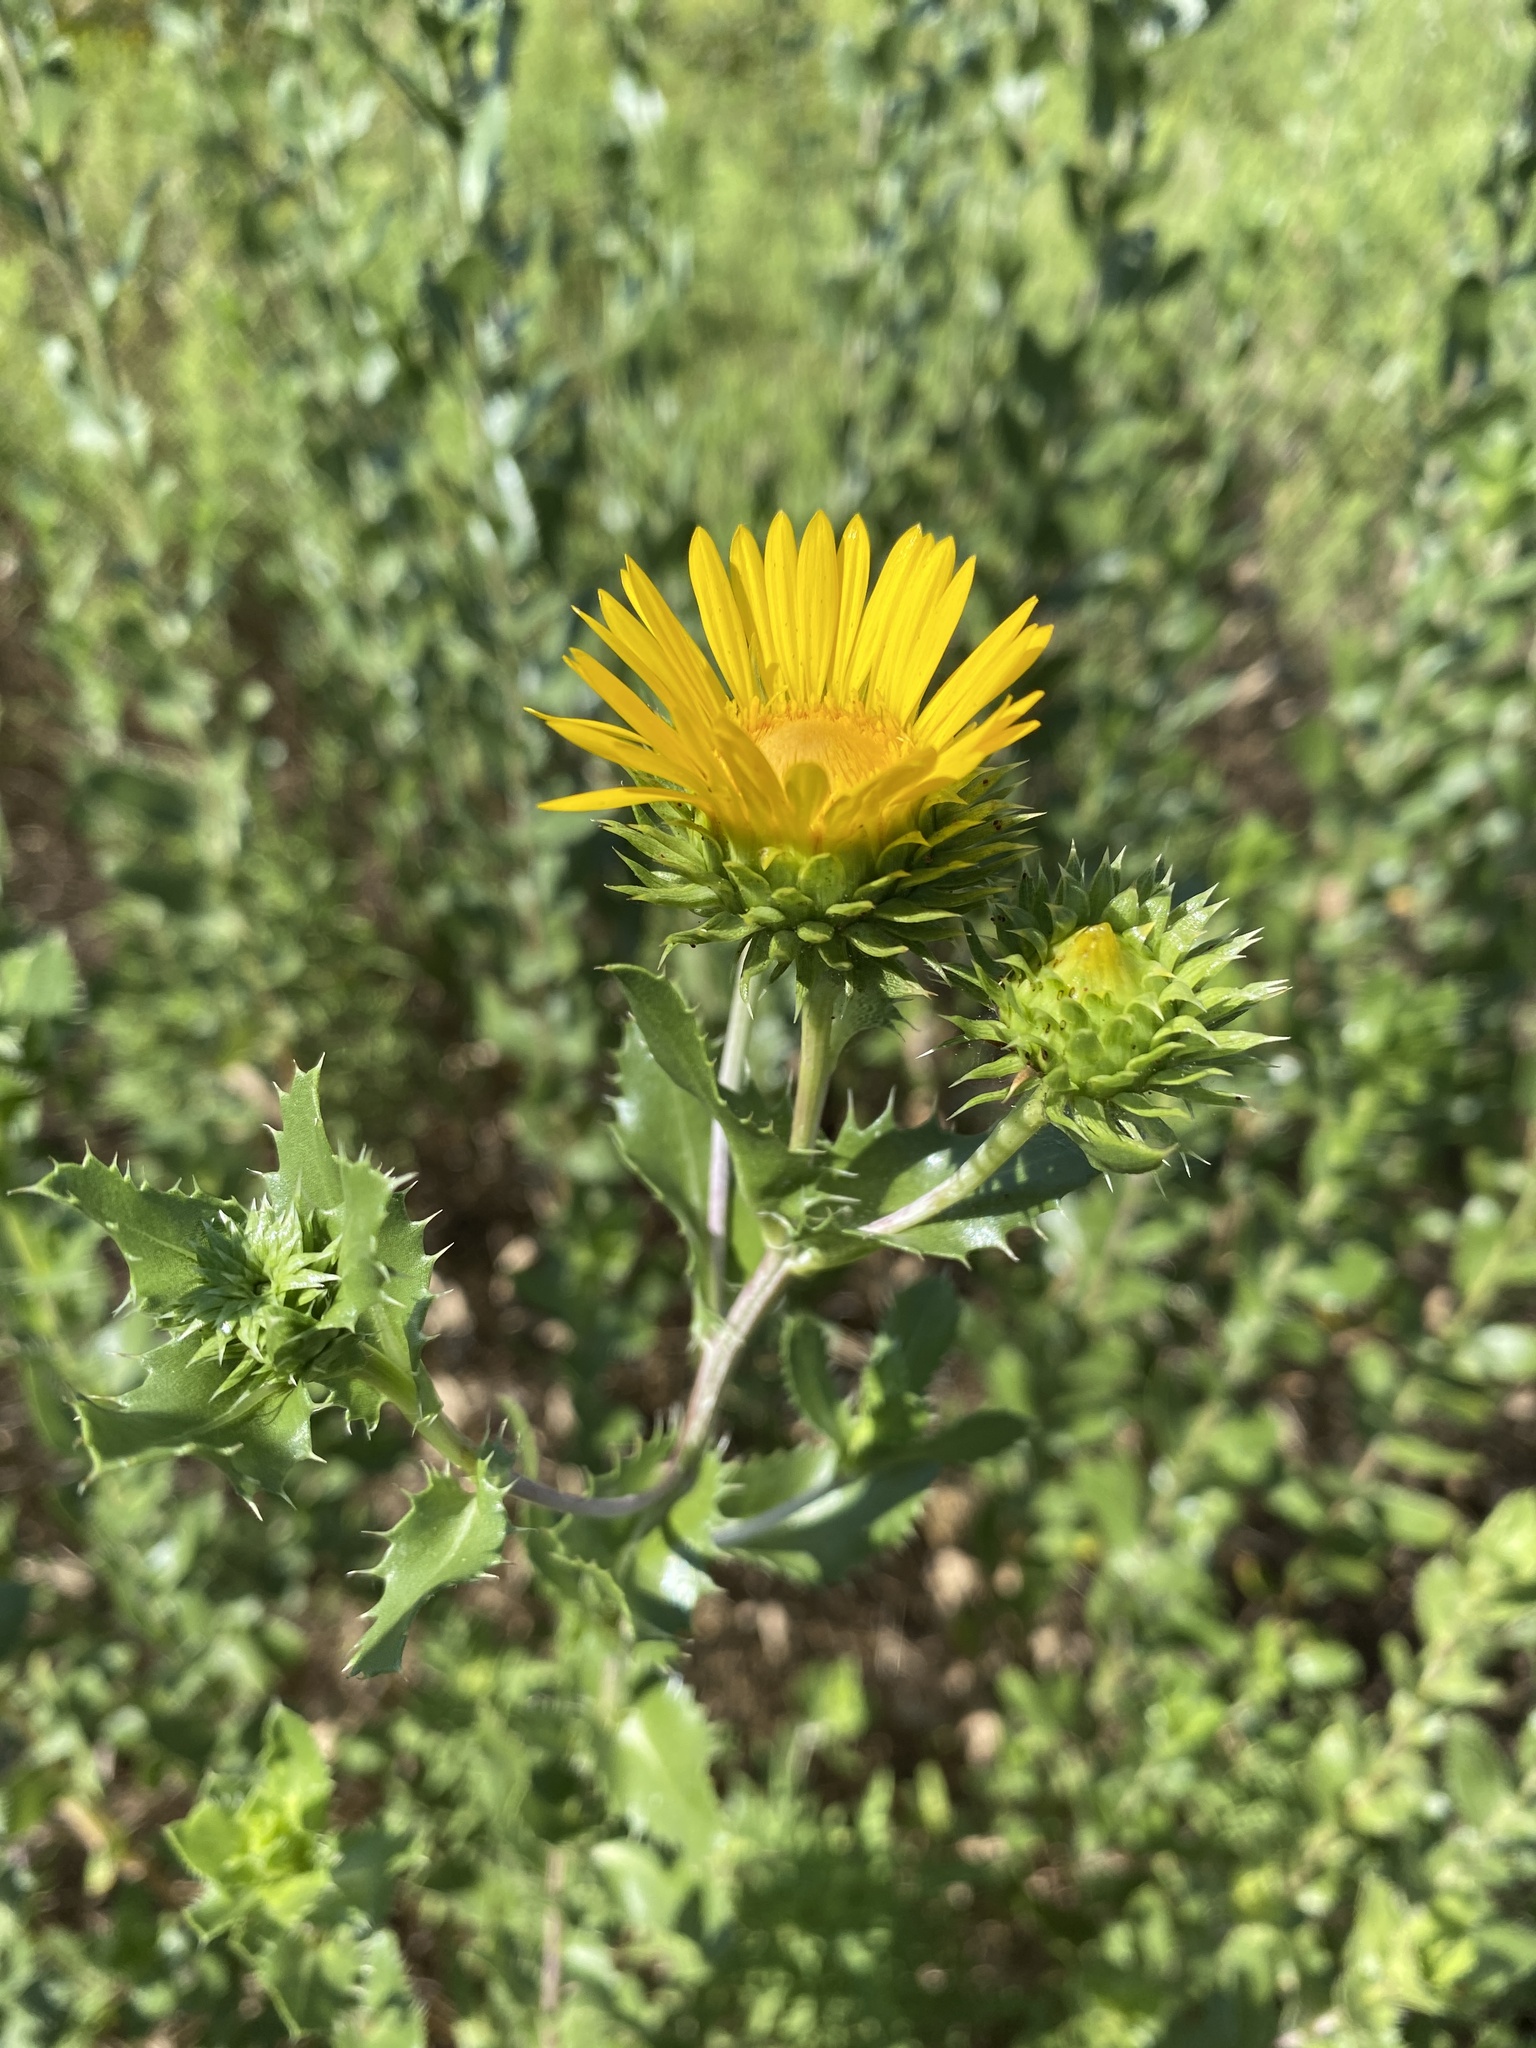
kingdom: Plantae
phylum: Tracheophyta
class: Magnoliopsida
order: Asterales
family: Asteraceae
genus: Grindelia
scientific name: Grindelia ciliata
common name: Goldenweed
